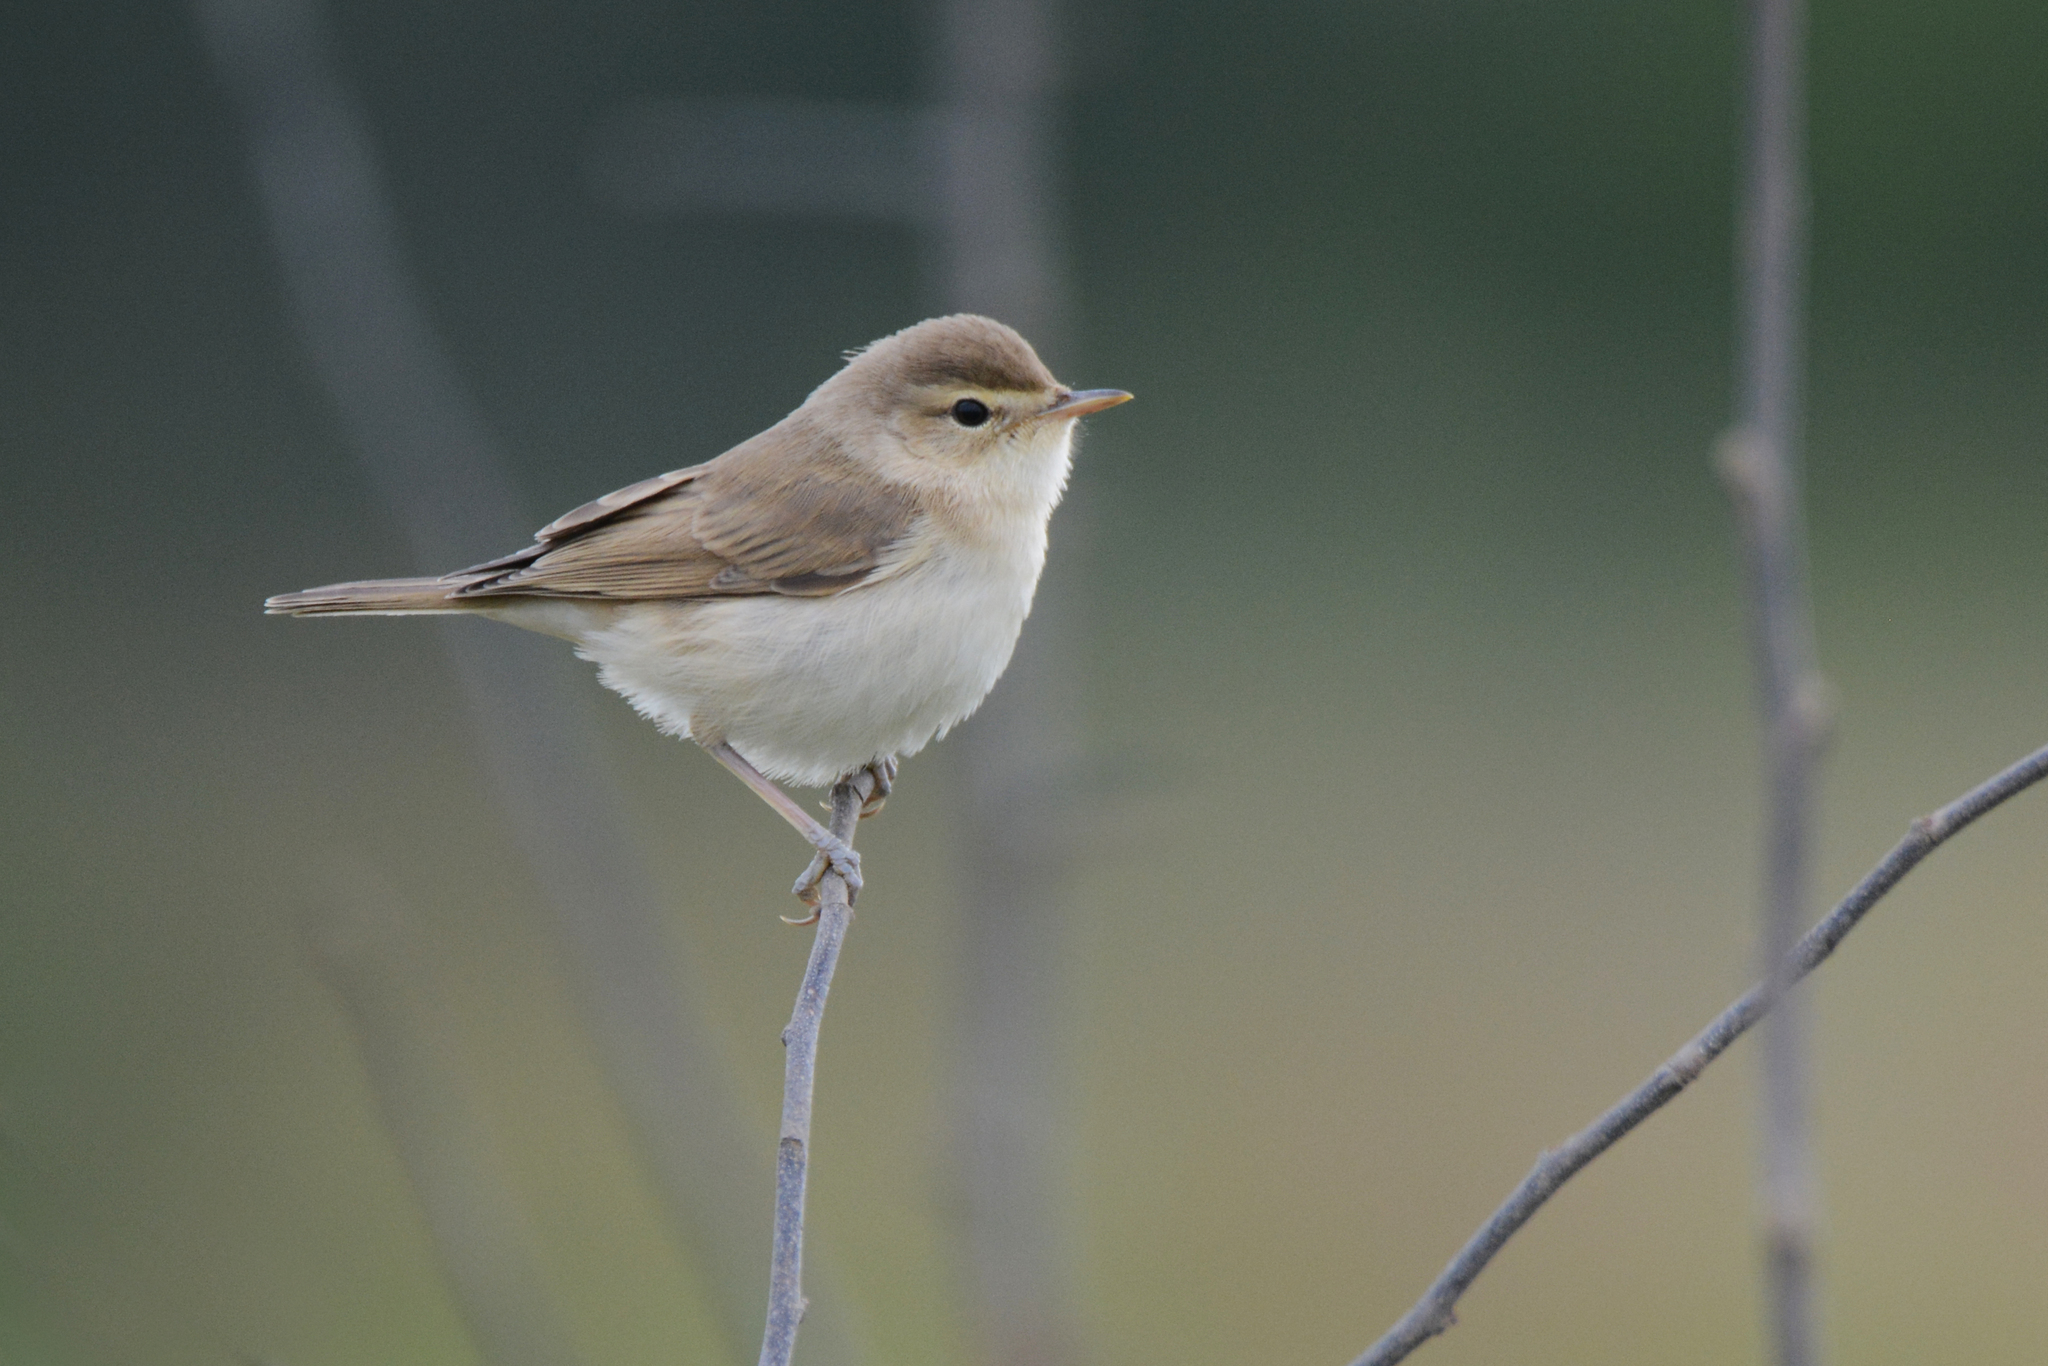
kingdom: Animalia
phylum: Chordata
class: Aves
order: Passeriformes
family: Acrocephalidae
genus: Iduna
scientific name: Iduna caligata
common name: Booted warbler
